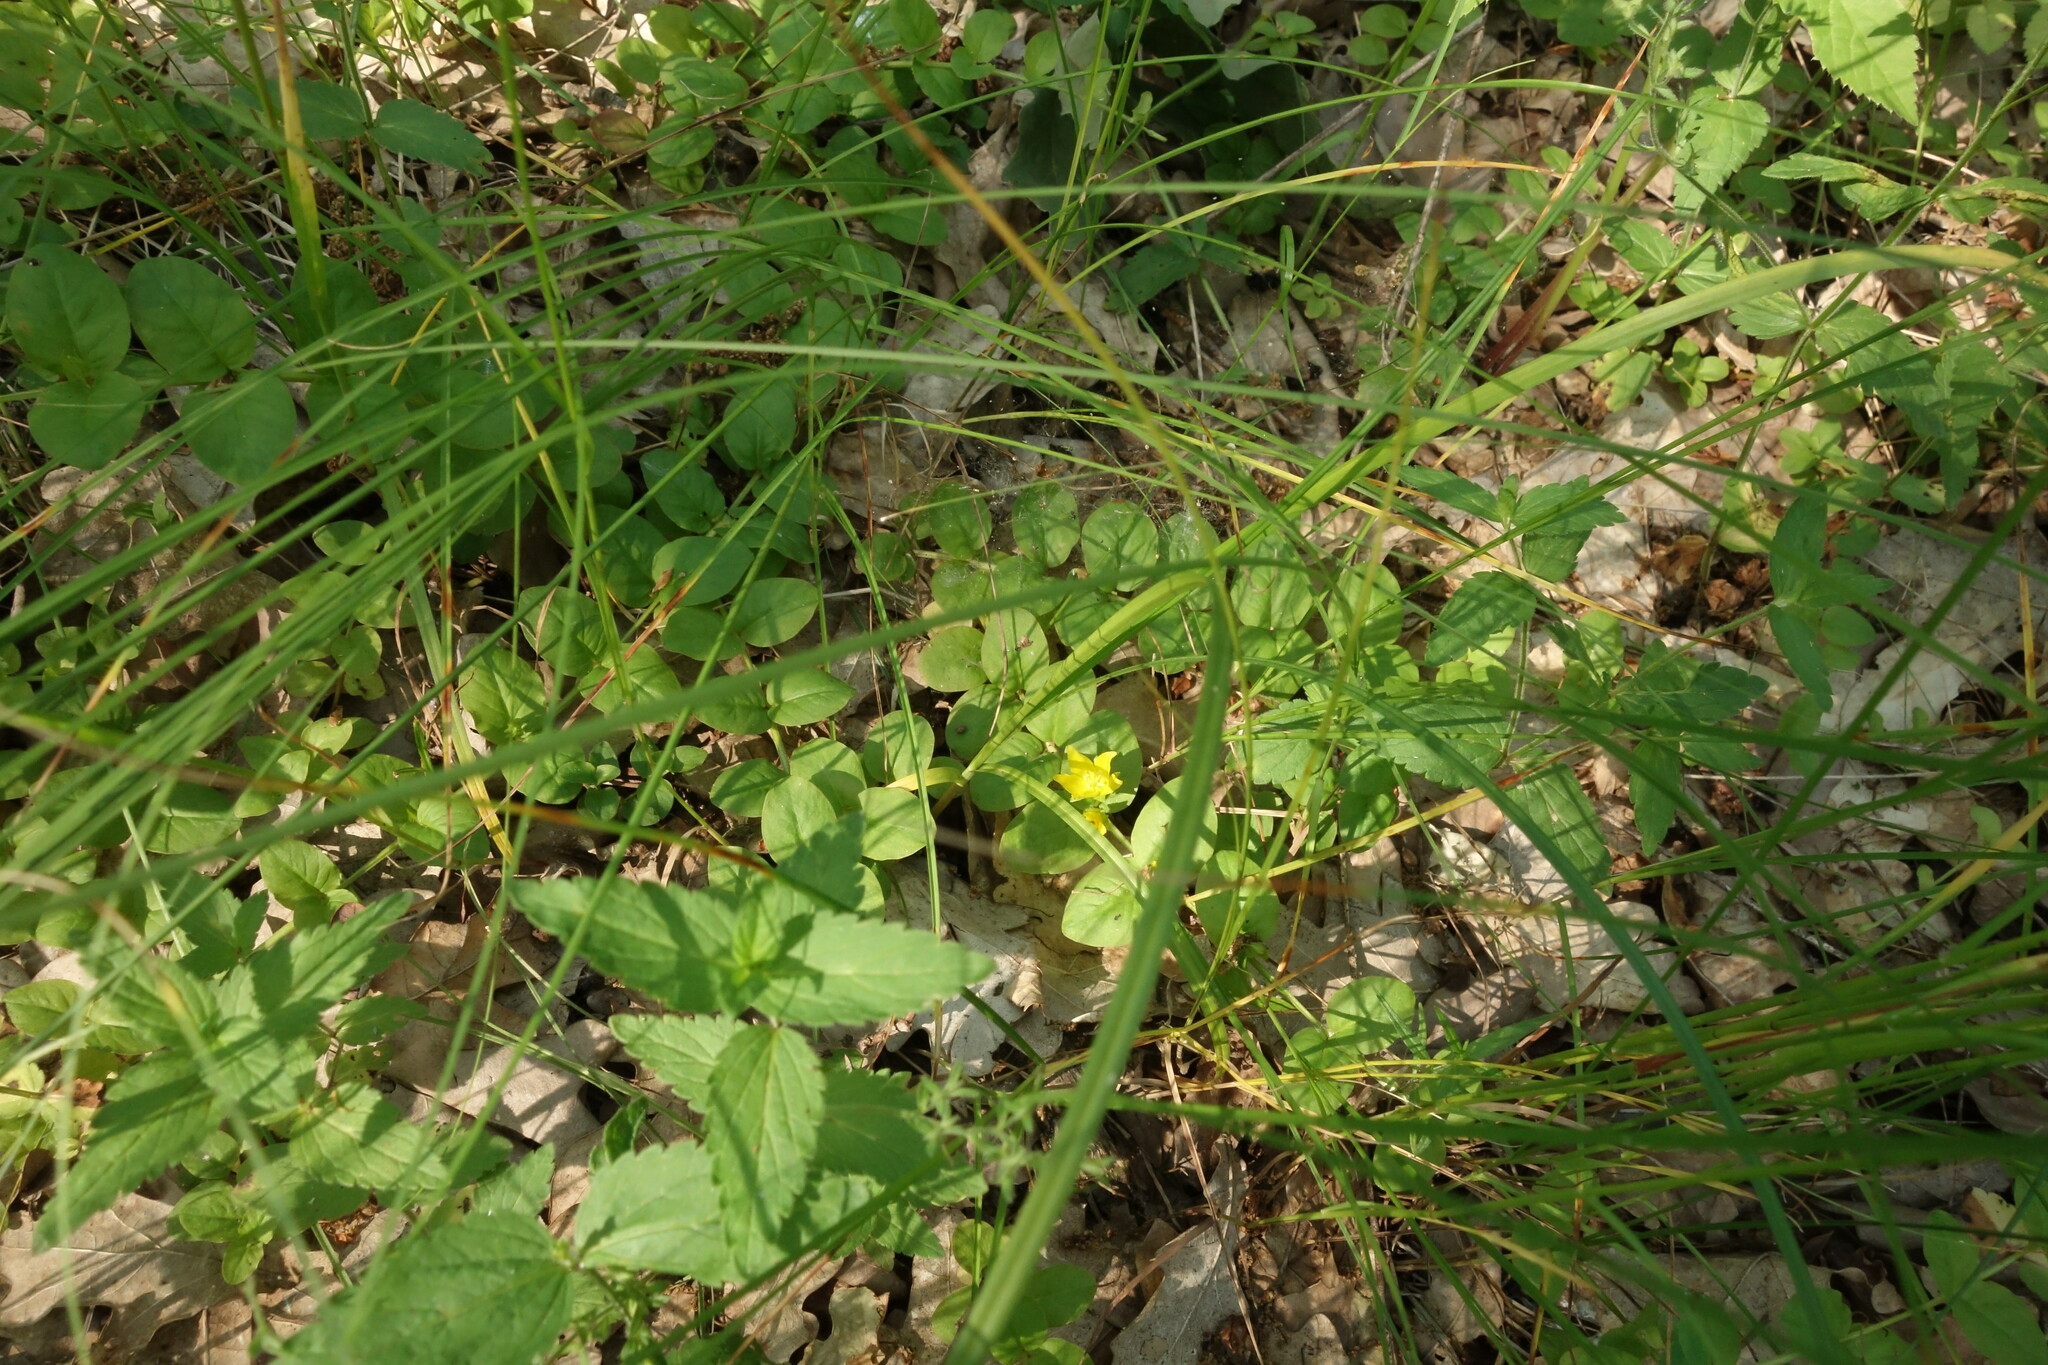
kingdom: Plantae
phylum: Tracheophyta
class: Magnoliopsida
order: Ericales
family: Primulaceae
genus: Lysimachia
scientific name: Lysimachia nummularia
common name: Moneywort
